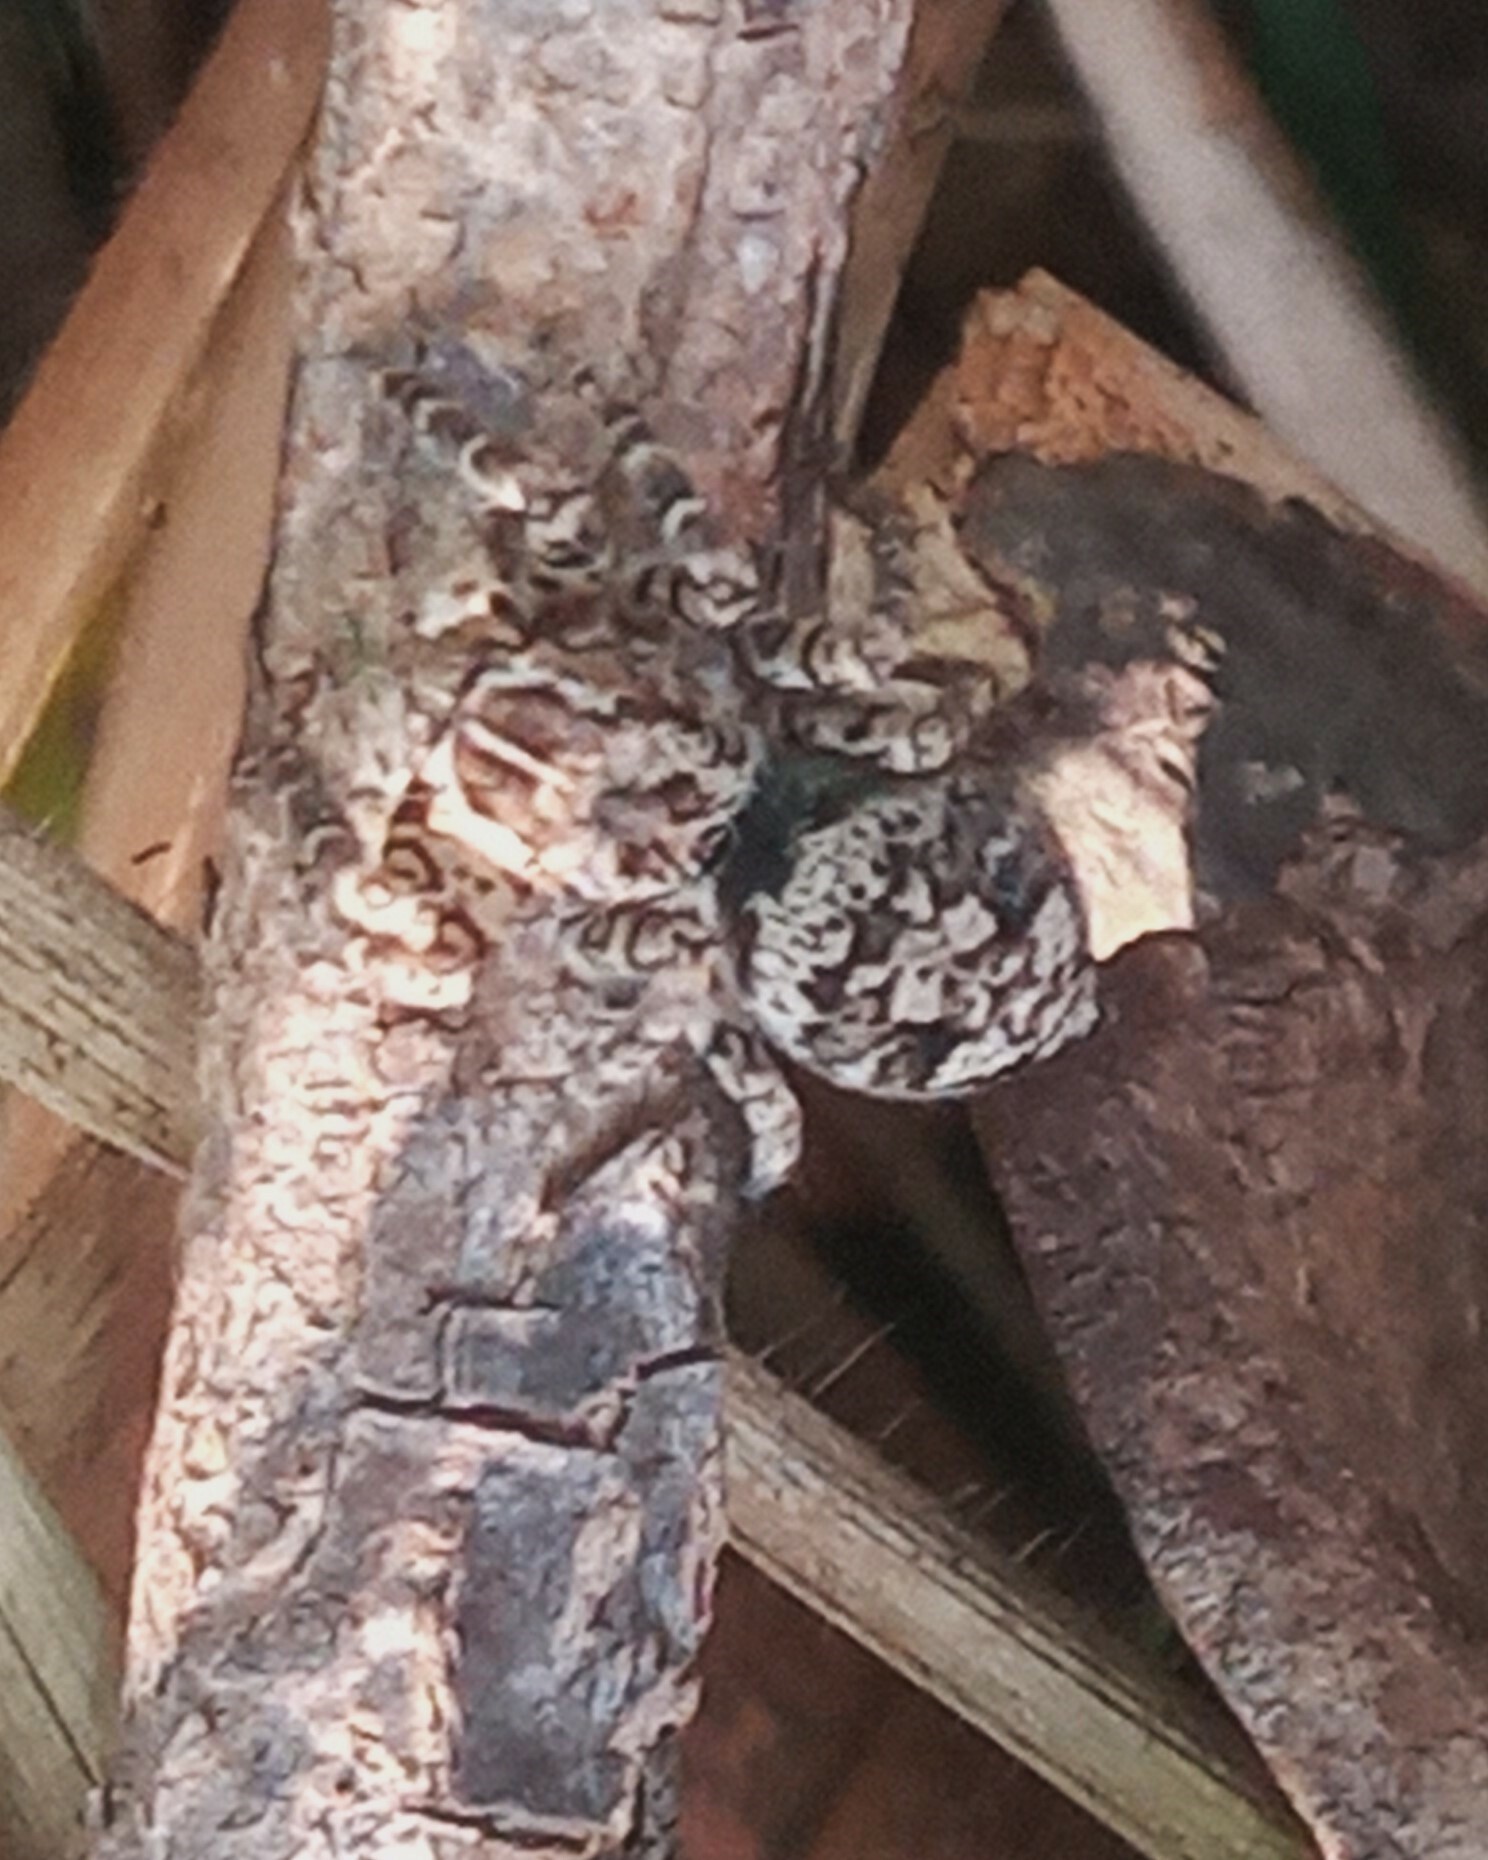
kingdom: Animalia
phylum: Arthropoda
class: Arachnida
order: Araneae
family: Salticidae
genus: Sumampattus
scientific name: Sumampattus quinqueradiatus
